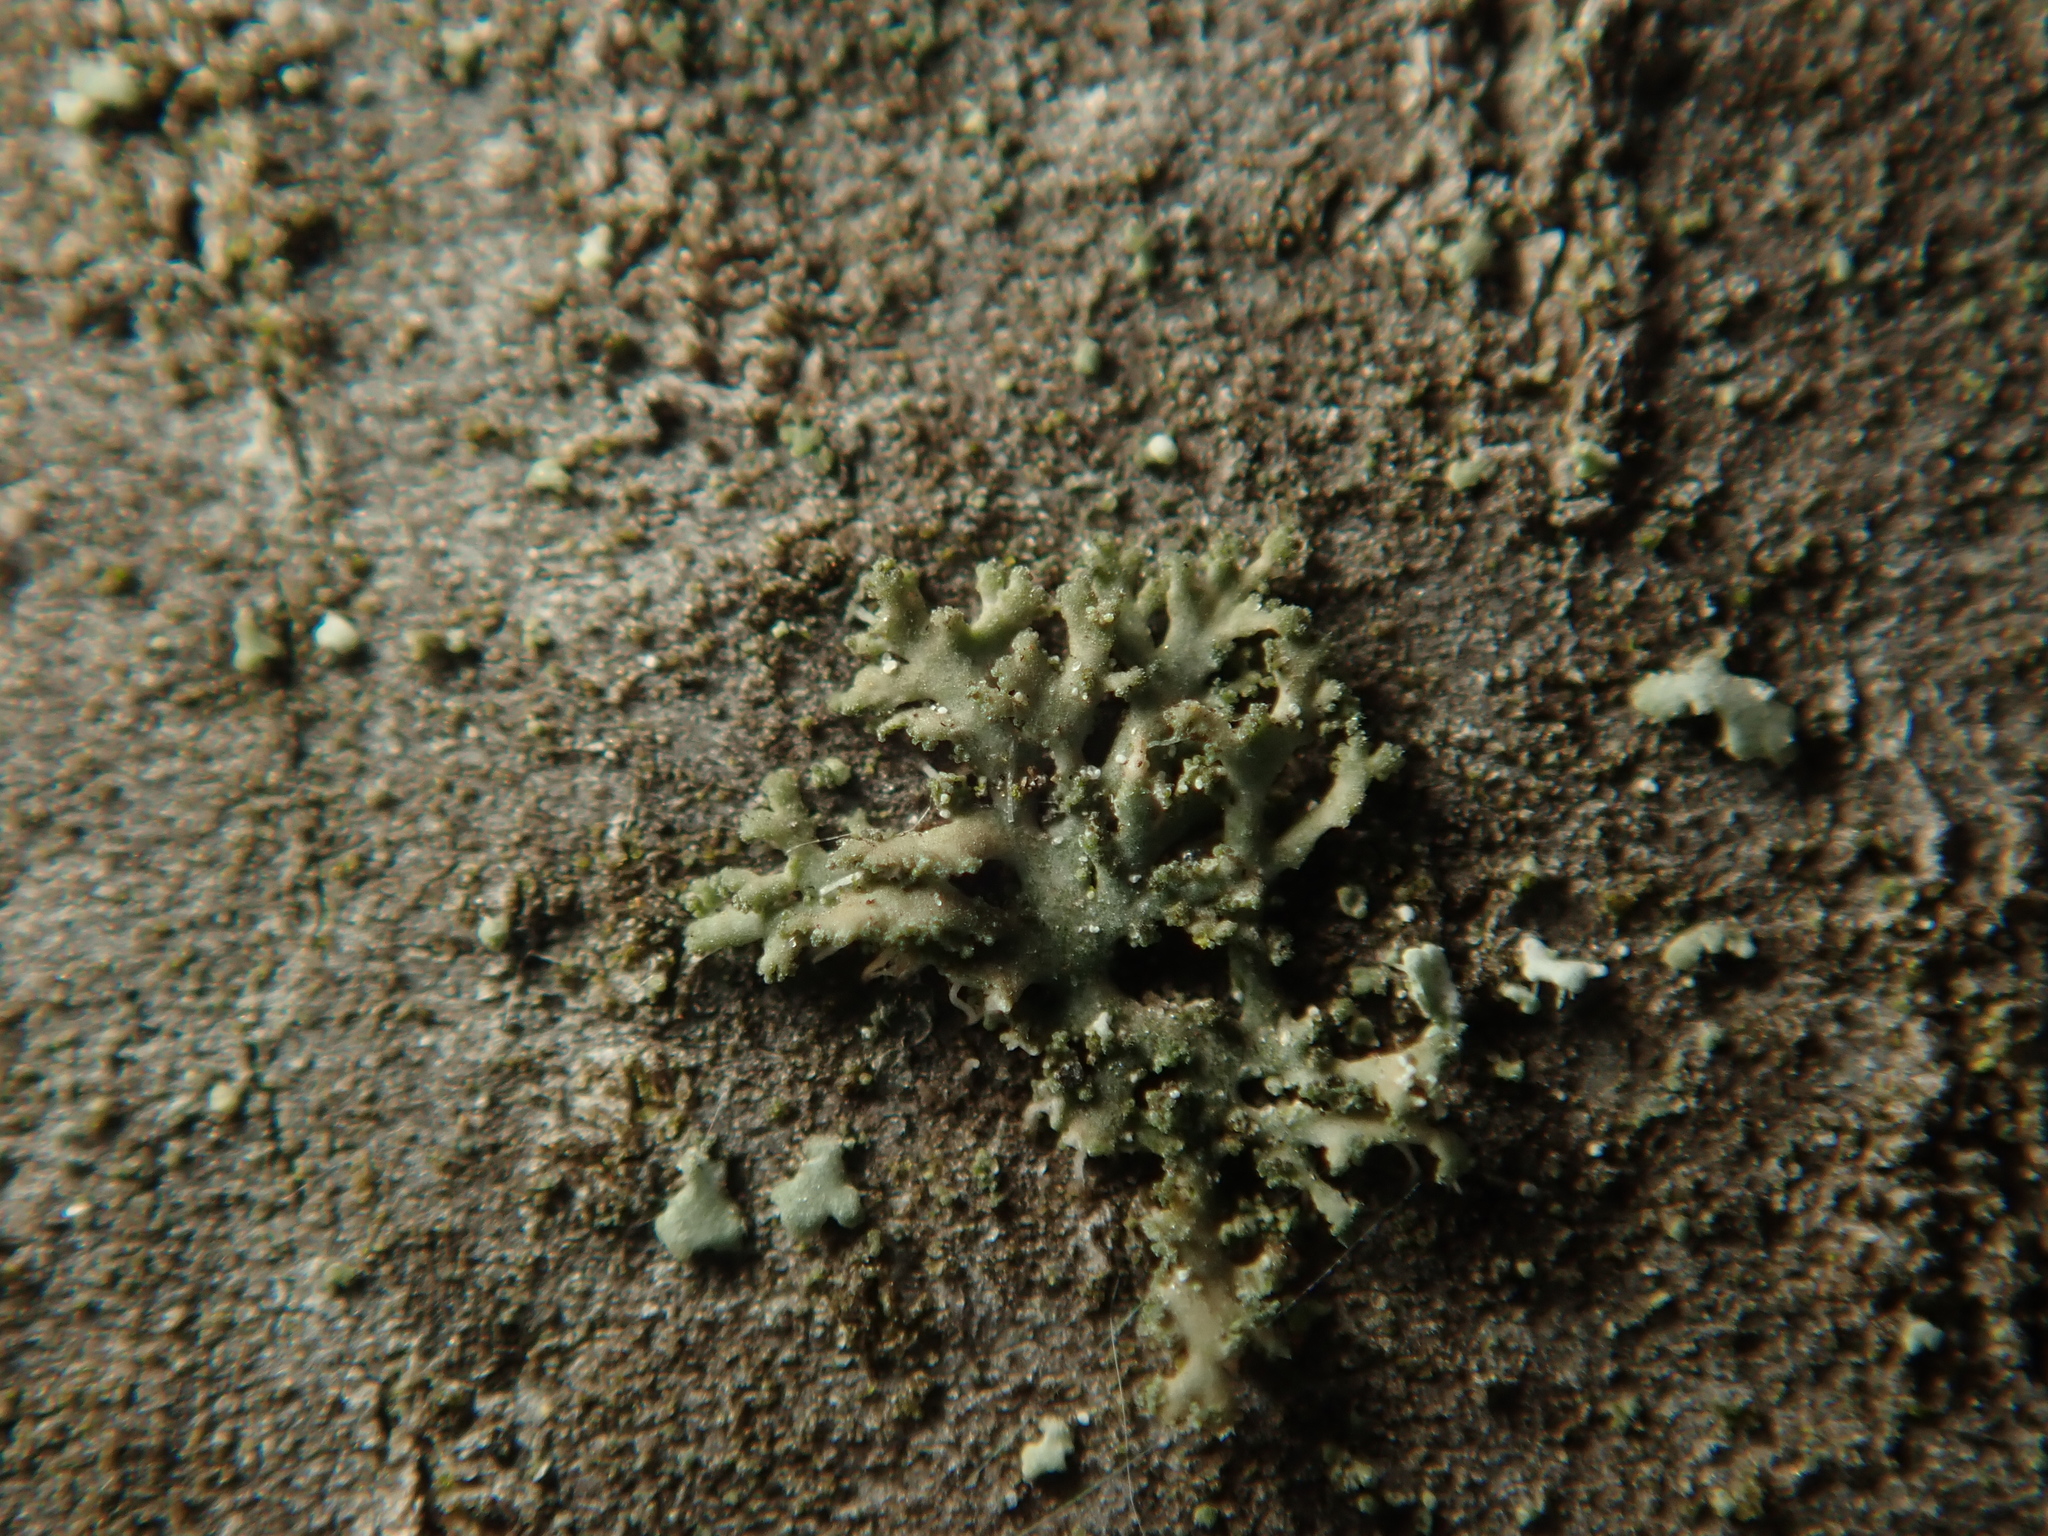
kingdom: Fungi
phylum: Ascomycota
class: Lecanoromycetes
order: Caliciales
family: Physciaceae
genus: Physciella
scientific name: Physciella nigricans
